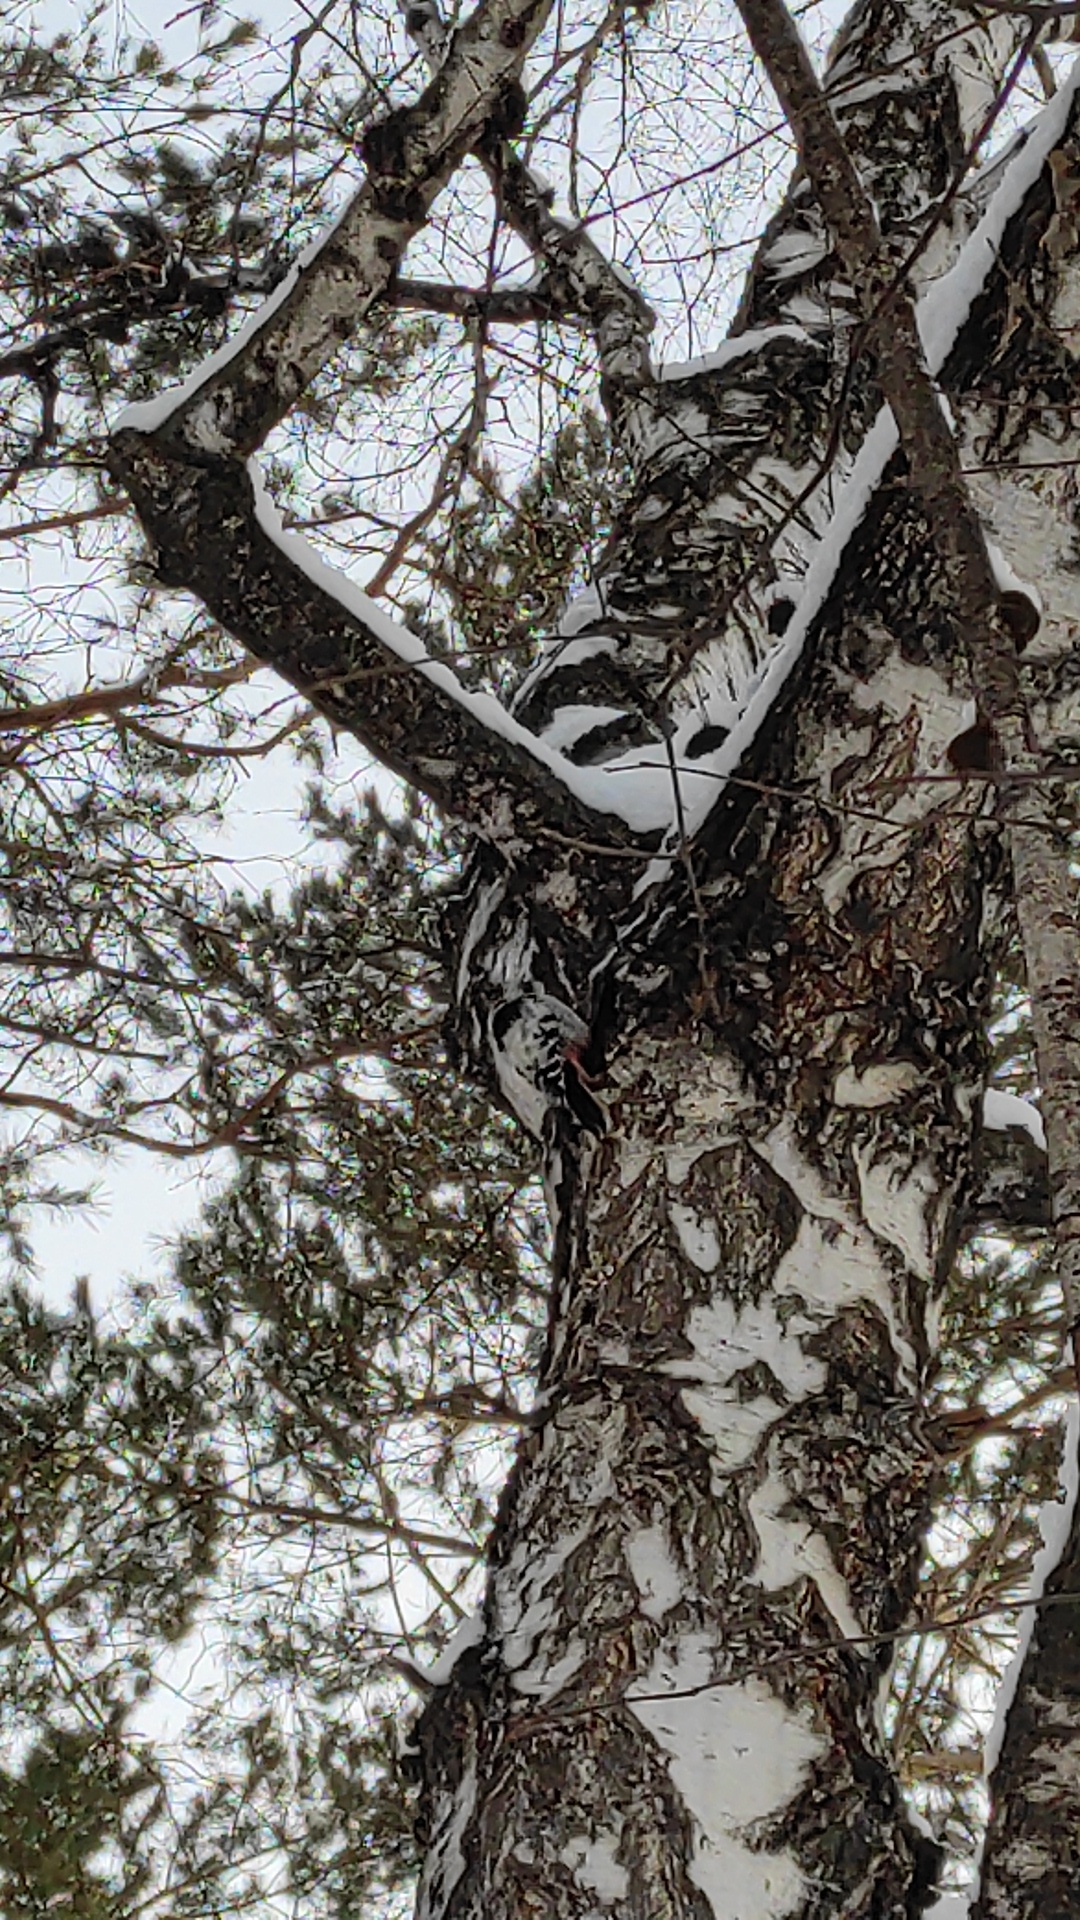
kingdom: Animalia
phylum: Chordata
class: Aves
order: Piciformes
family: Picidae
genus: Dendrocopos
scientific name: Dendrocopos leucotos
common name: White-backed woodpecker
